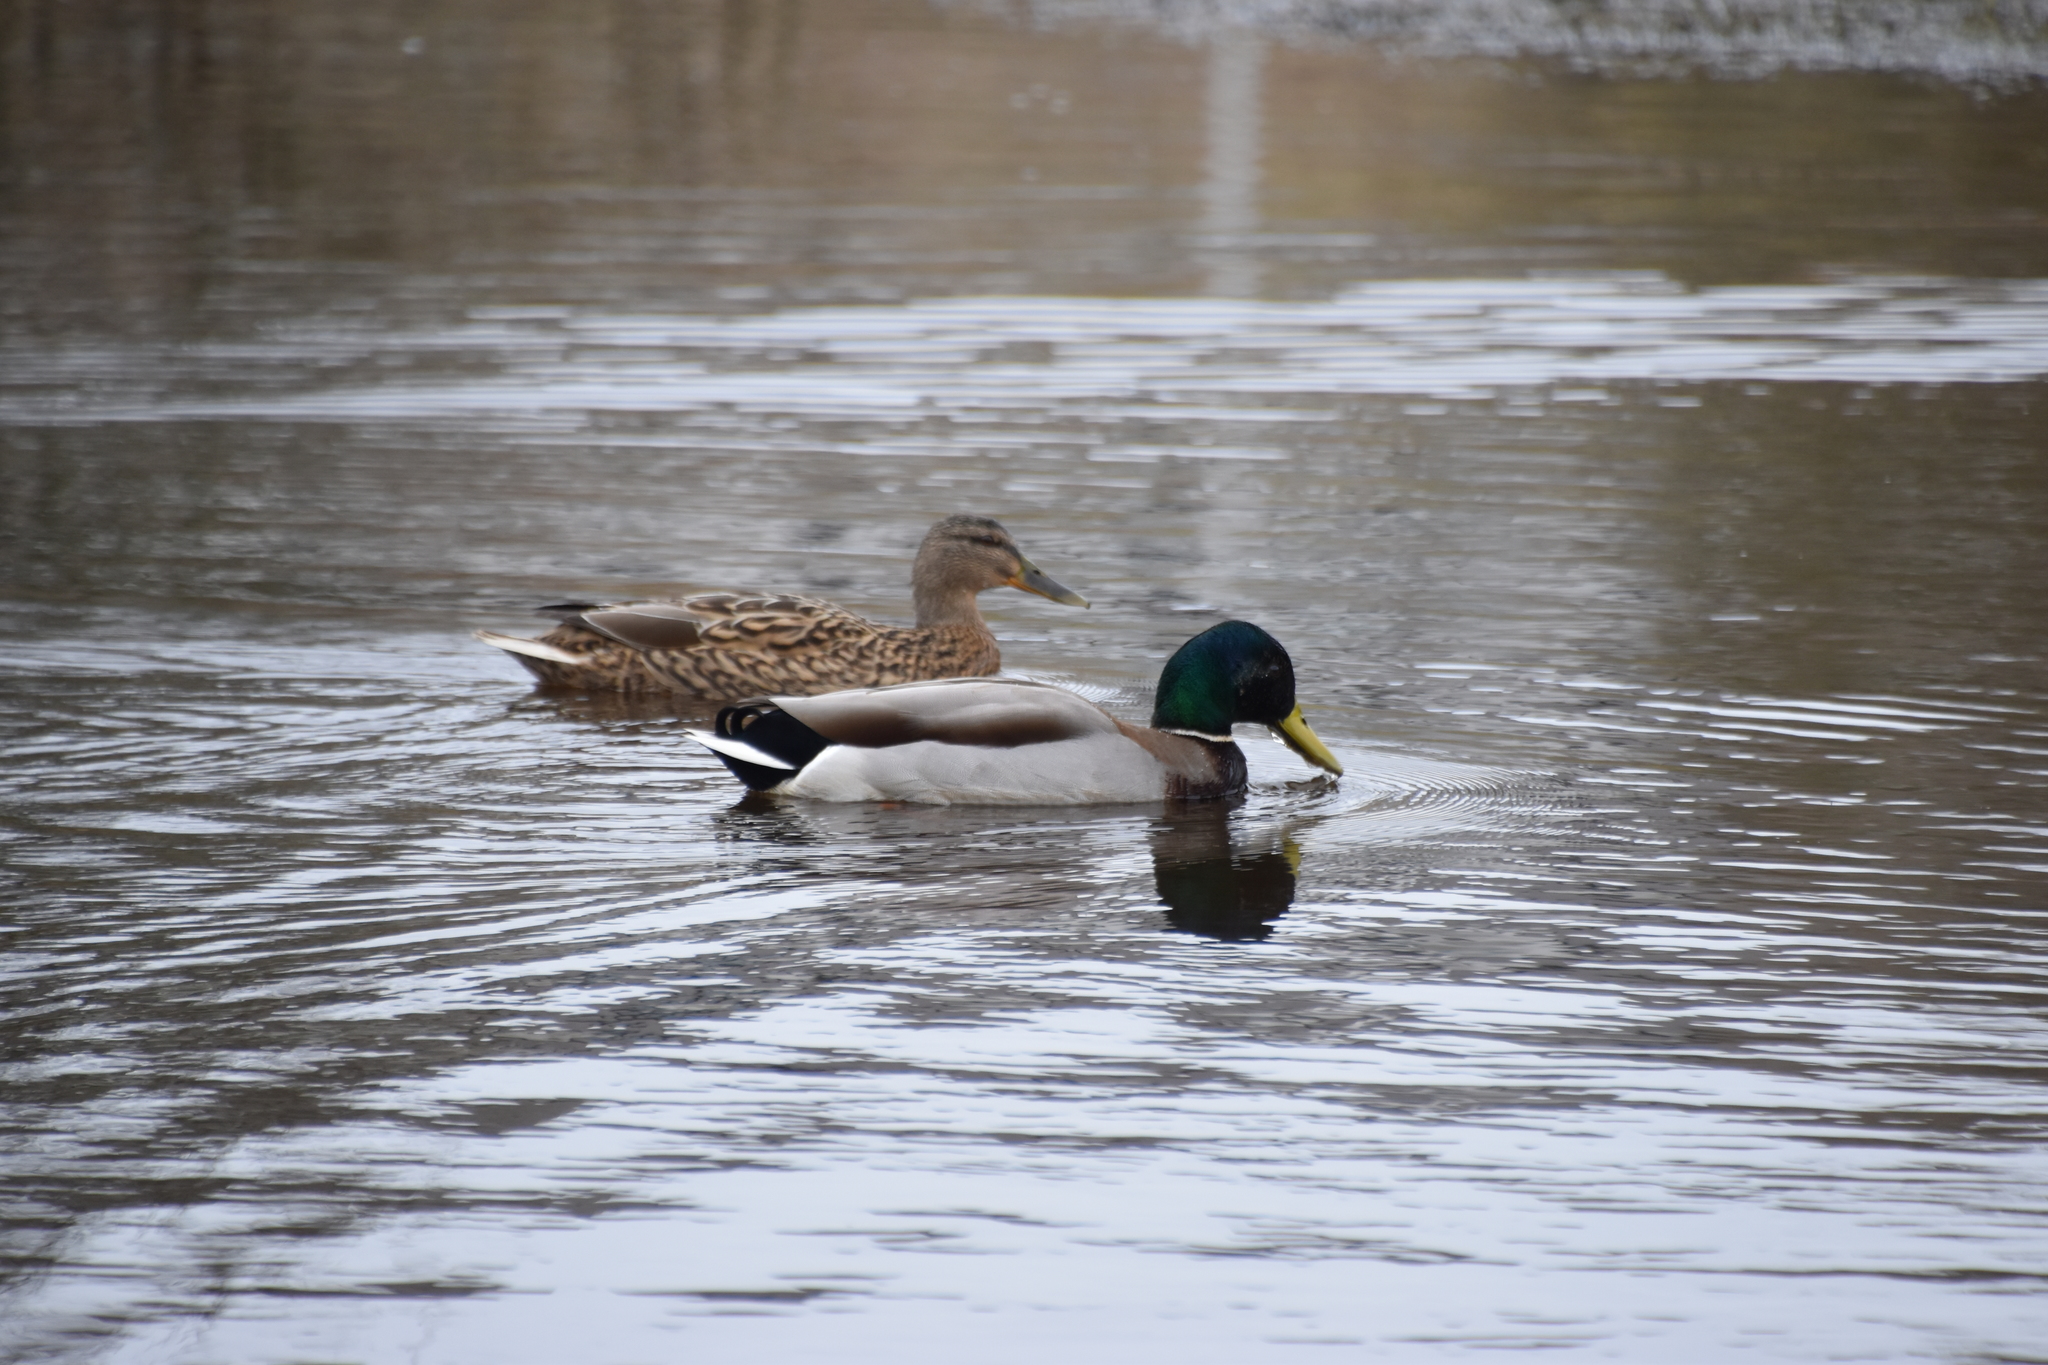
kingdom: Animalia
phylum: Chordata
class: Aves
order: Anseriformes
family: Anatidae
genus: Anas
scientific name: Anas platyrhynchos
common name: Mallard
